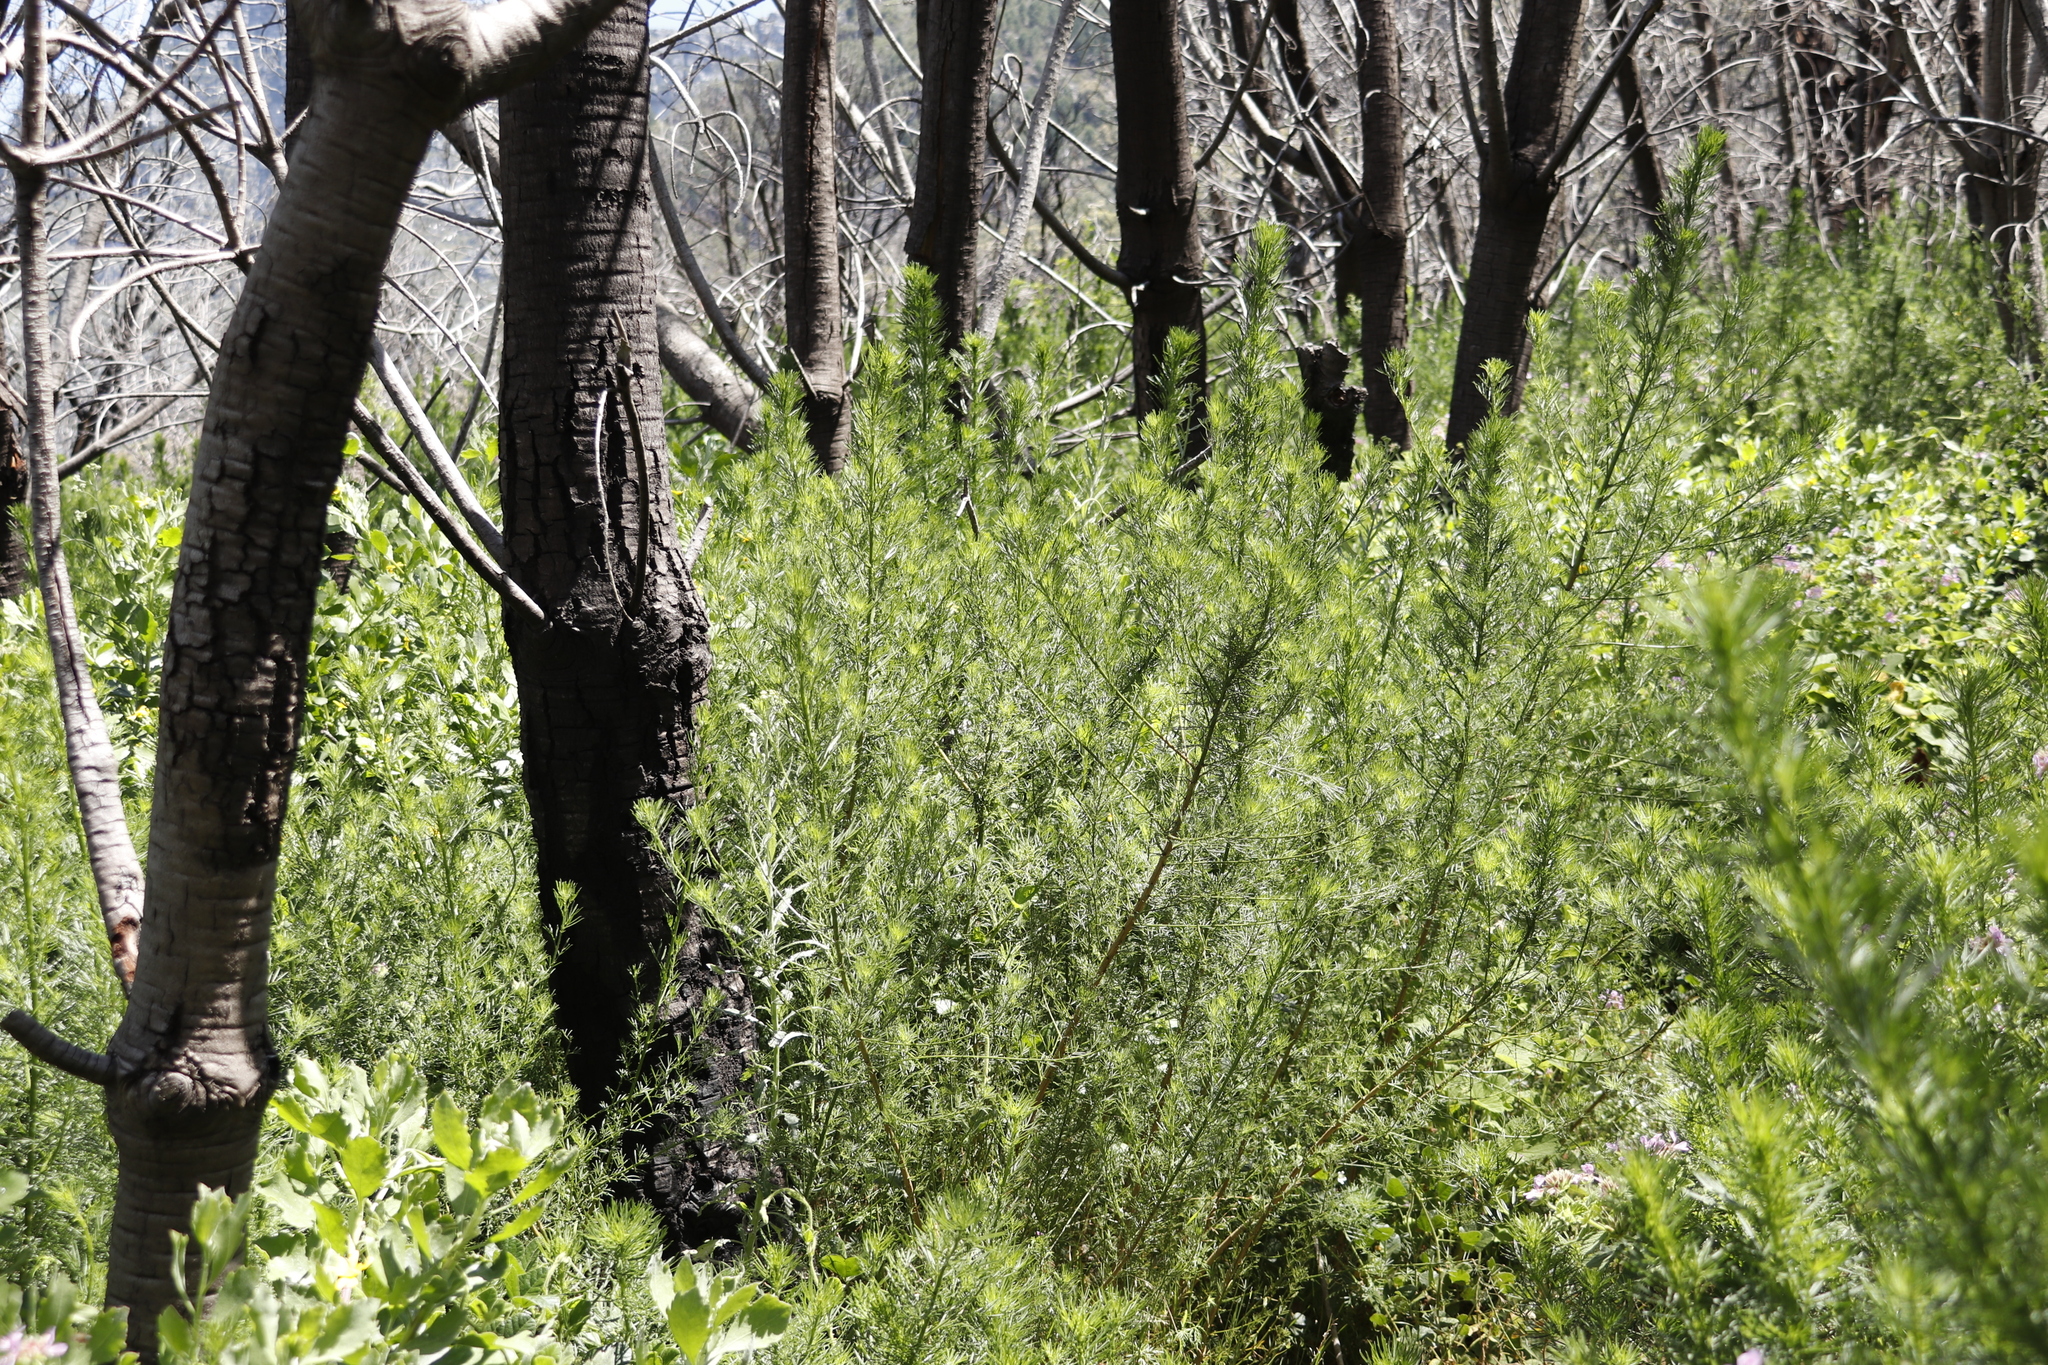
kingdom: Plantae
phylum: Tracheophyta
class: Magnoliopsida
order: Fabales
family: Fabaceae
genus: Psoralea
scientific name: Psoralea pinnata
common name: African scurfpea
